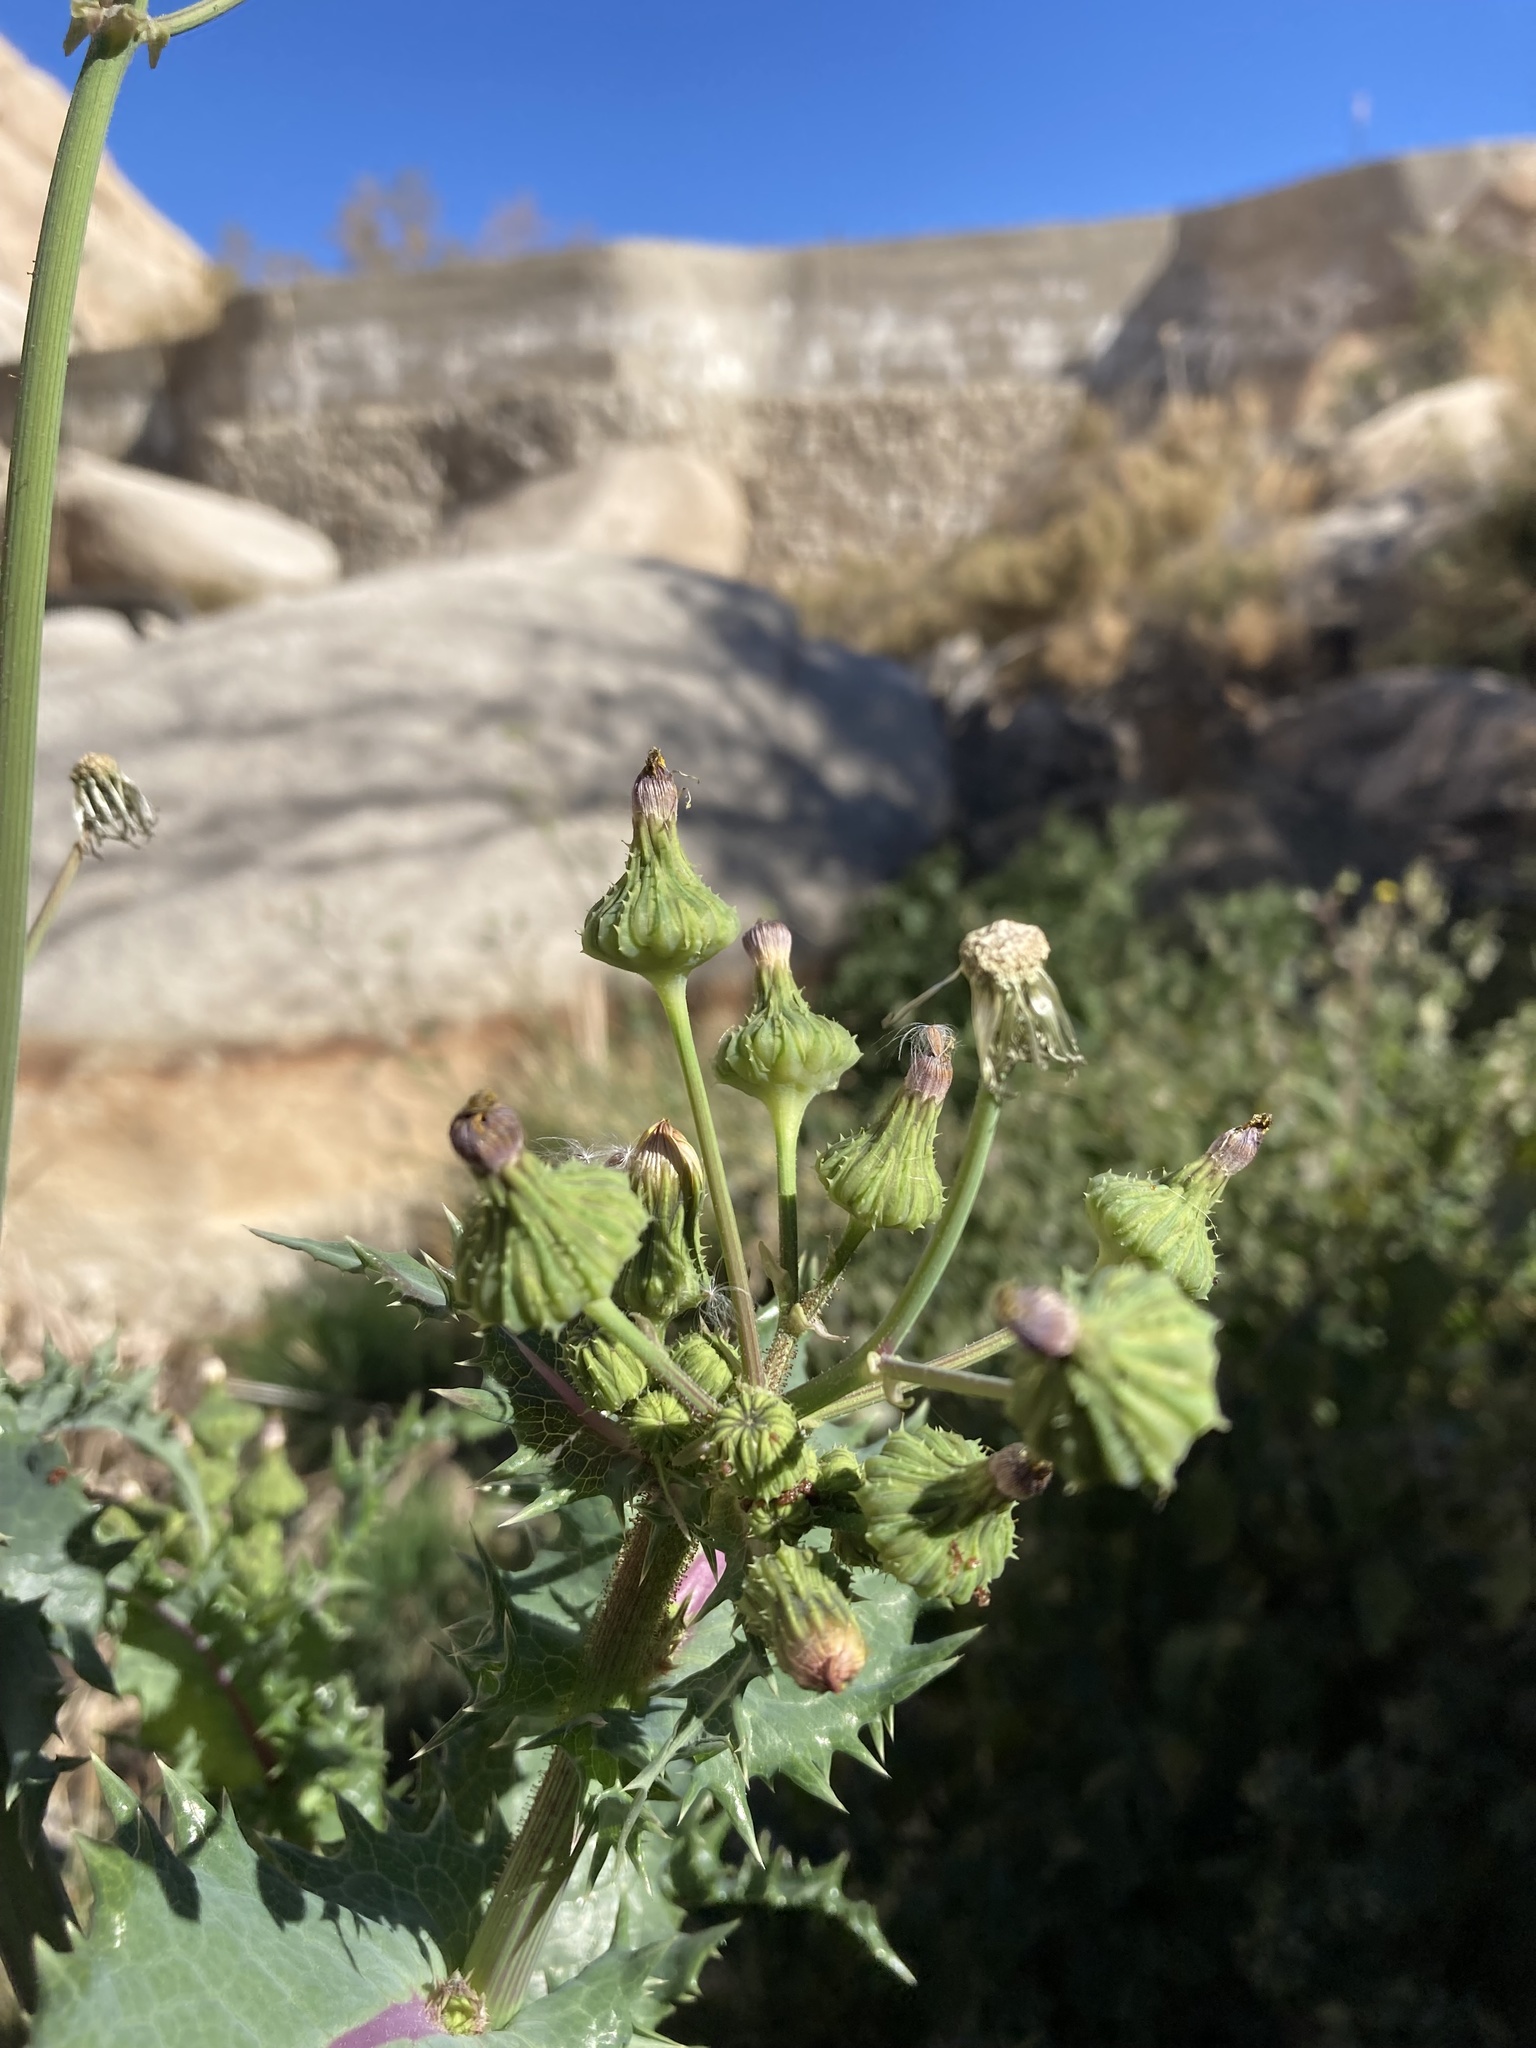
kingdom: Plantae
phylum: Tracheophyta
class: Magnoliopsida
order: Asterales
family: Asteraceae
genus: Sonchus
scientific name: Sonchus asper
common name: Prickly sow-thistle
